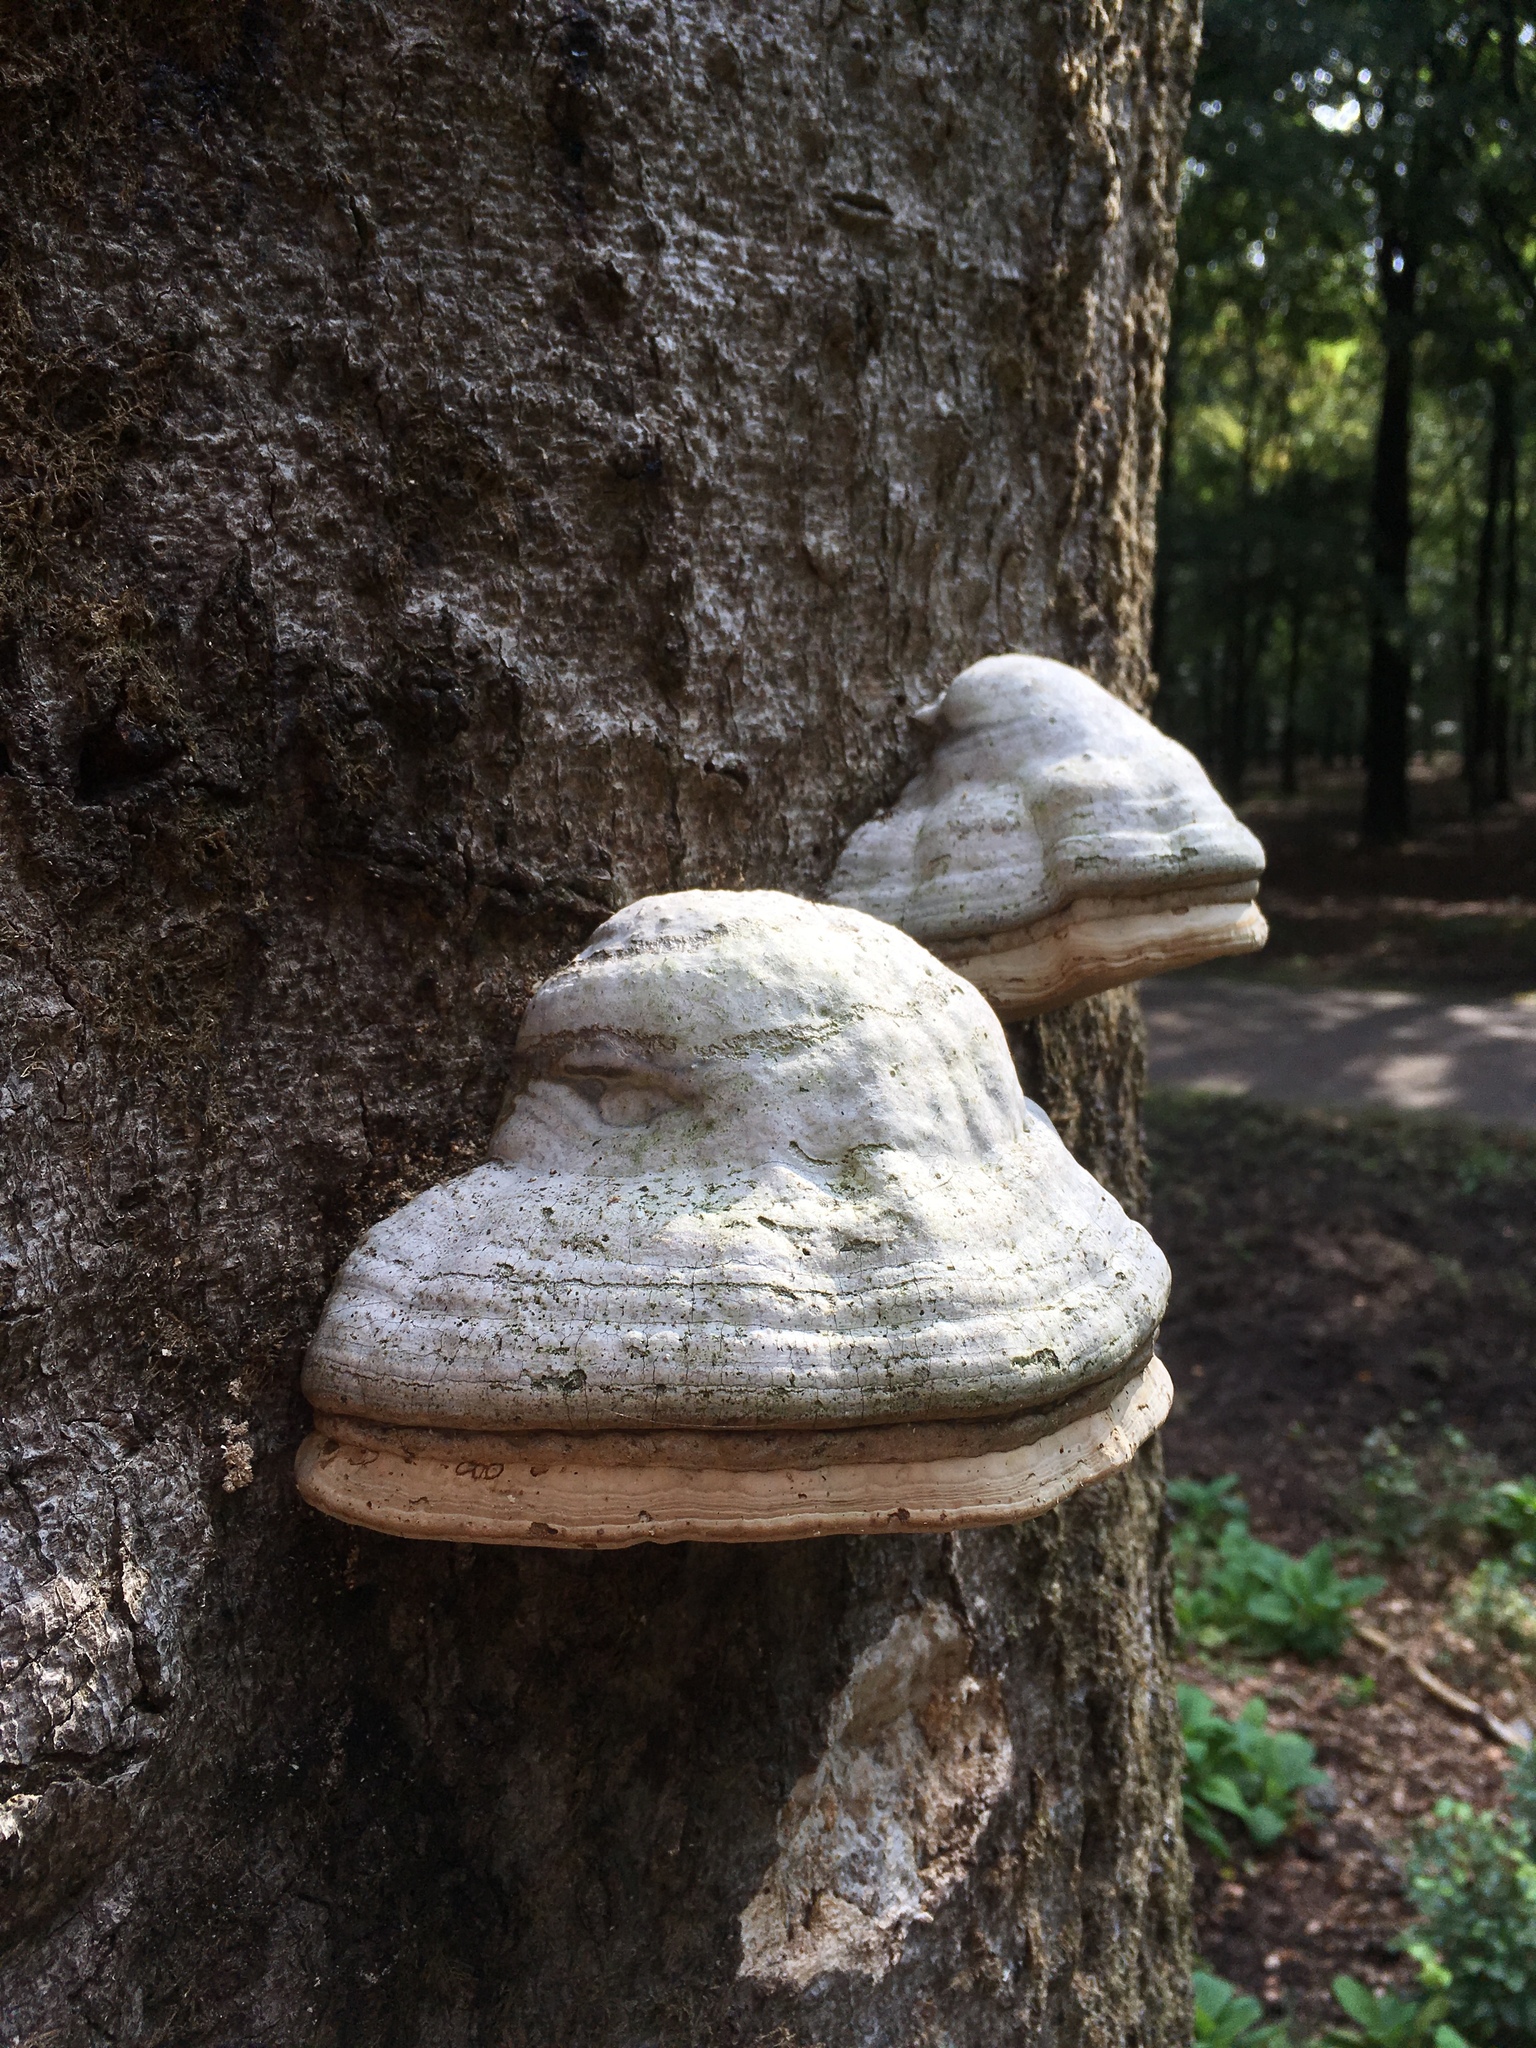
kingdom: Fungi
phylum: Basidiomycota
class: Agaricomycetes
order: Polyporales
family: Polyporaceae
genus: Fomes
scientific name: Fomes fomentarius
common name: Hoof fungus
